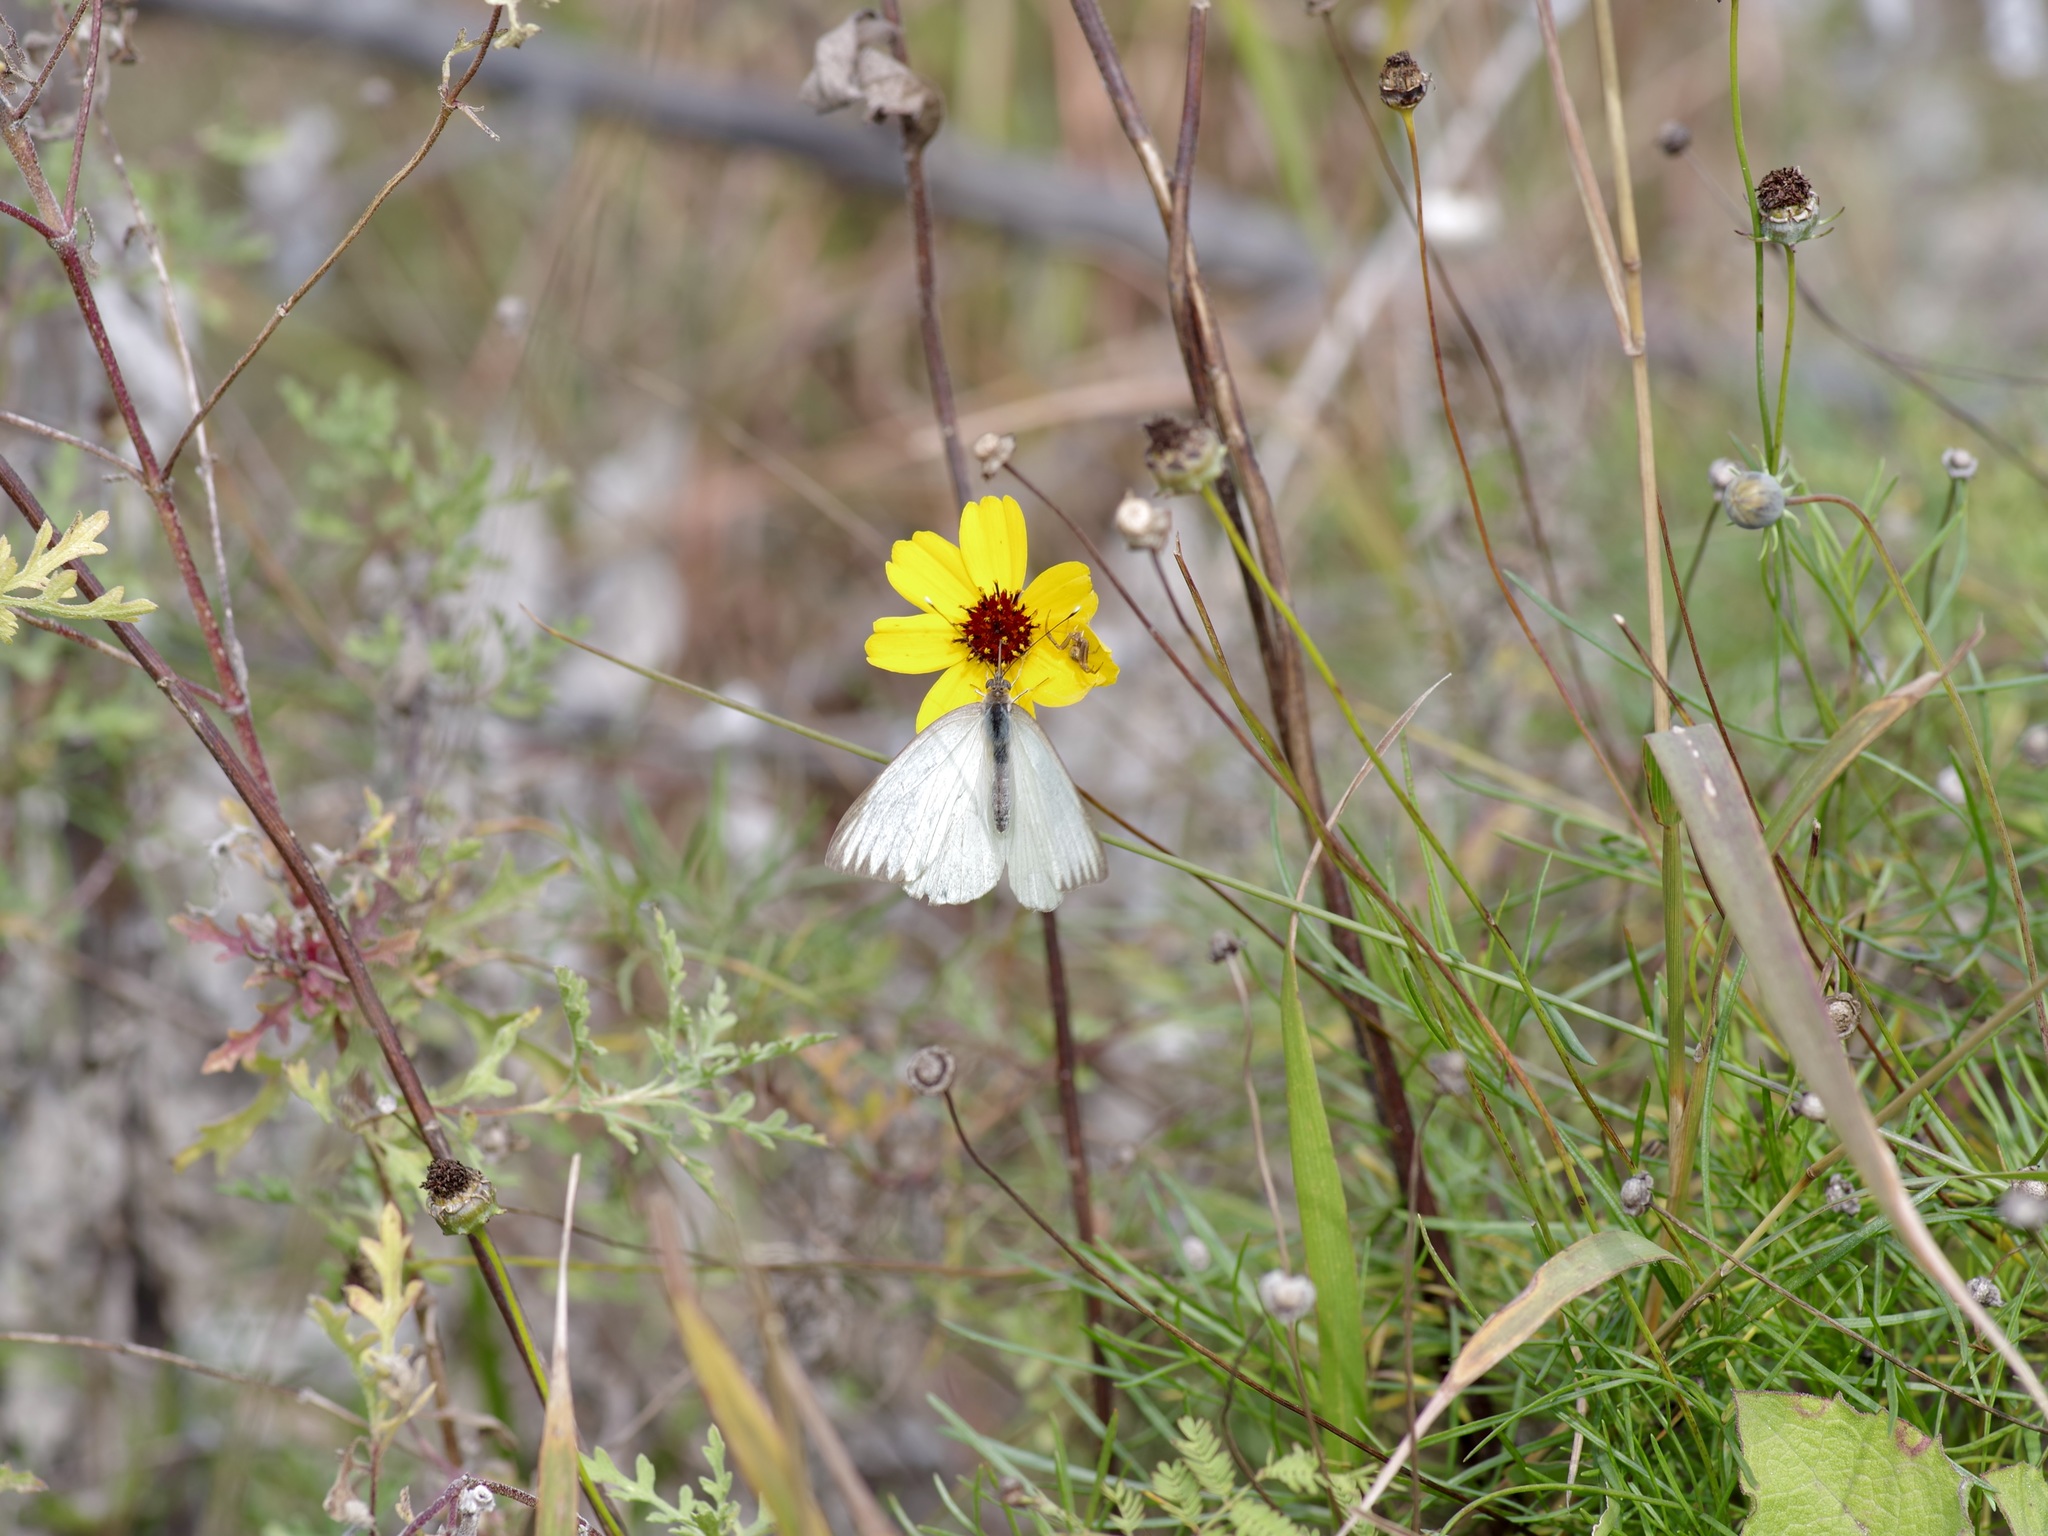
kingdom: Animalia
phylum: Arthropoda
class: Insecta
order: Lepidoptera
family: Pieridae
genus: Ascia
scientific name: Ascia monuste
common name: Great southern white
